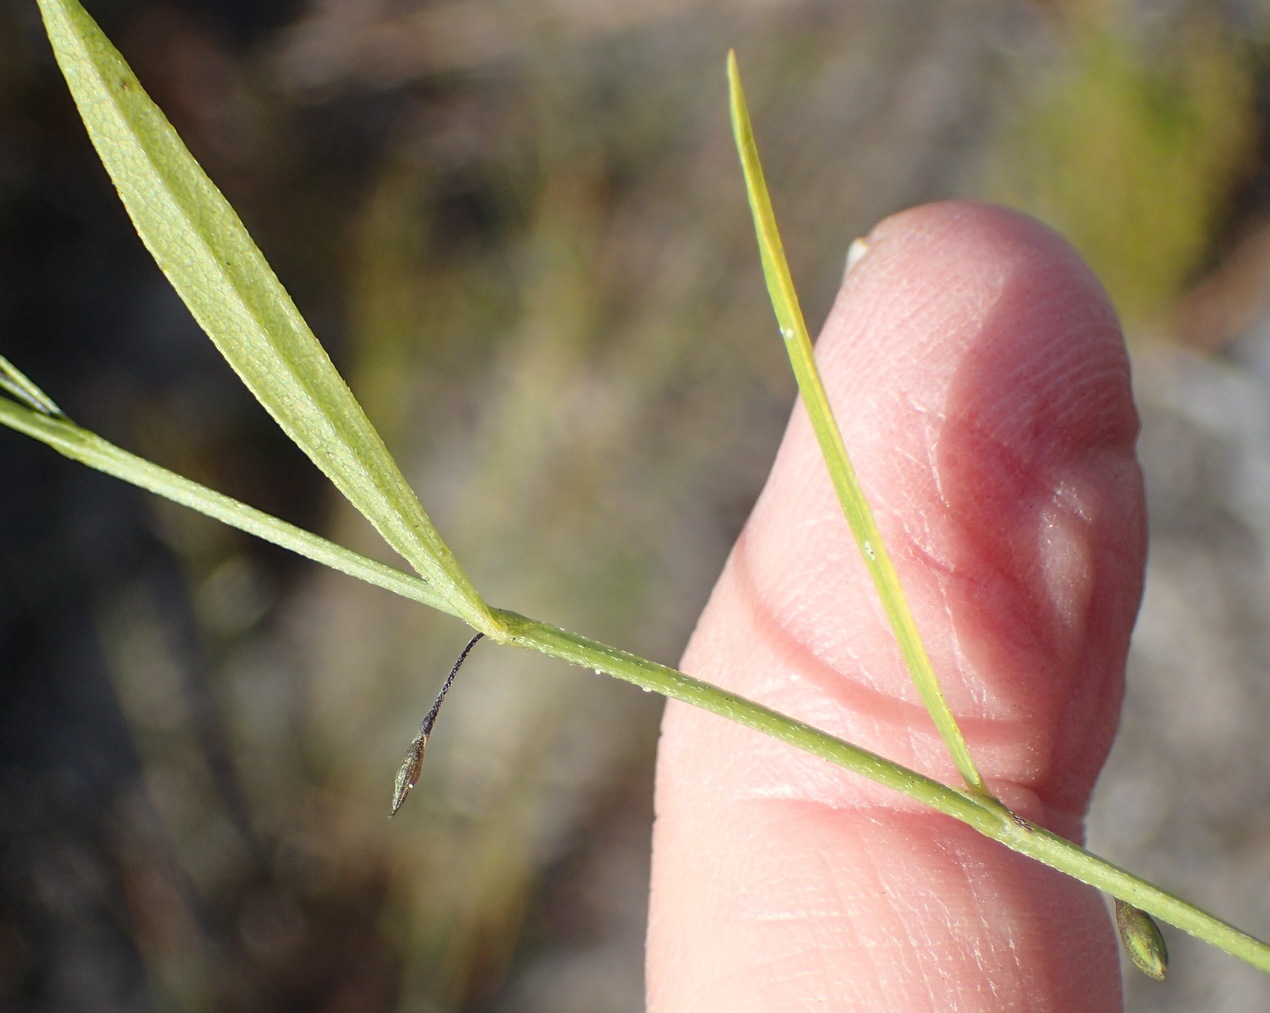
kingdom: Plantae
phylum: Tracheophyta
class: Magnoliopsida
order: Fabales
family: Fabaceae
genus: Psoralea
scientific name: Psoralea asarina
